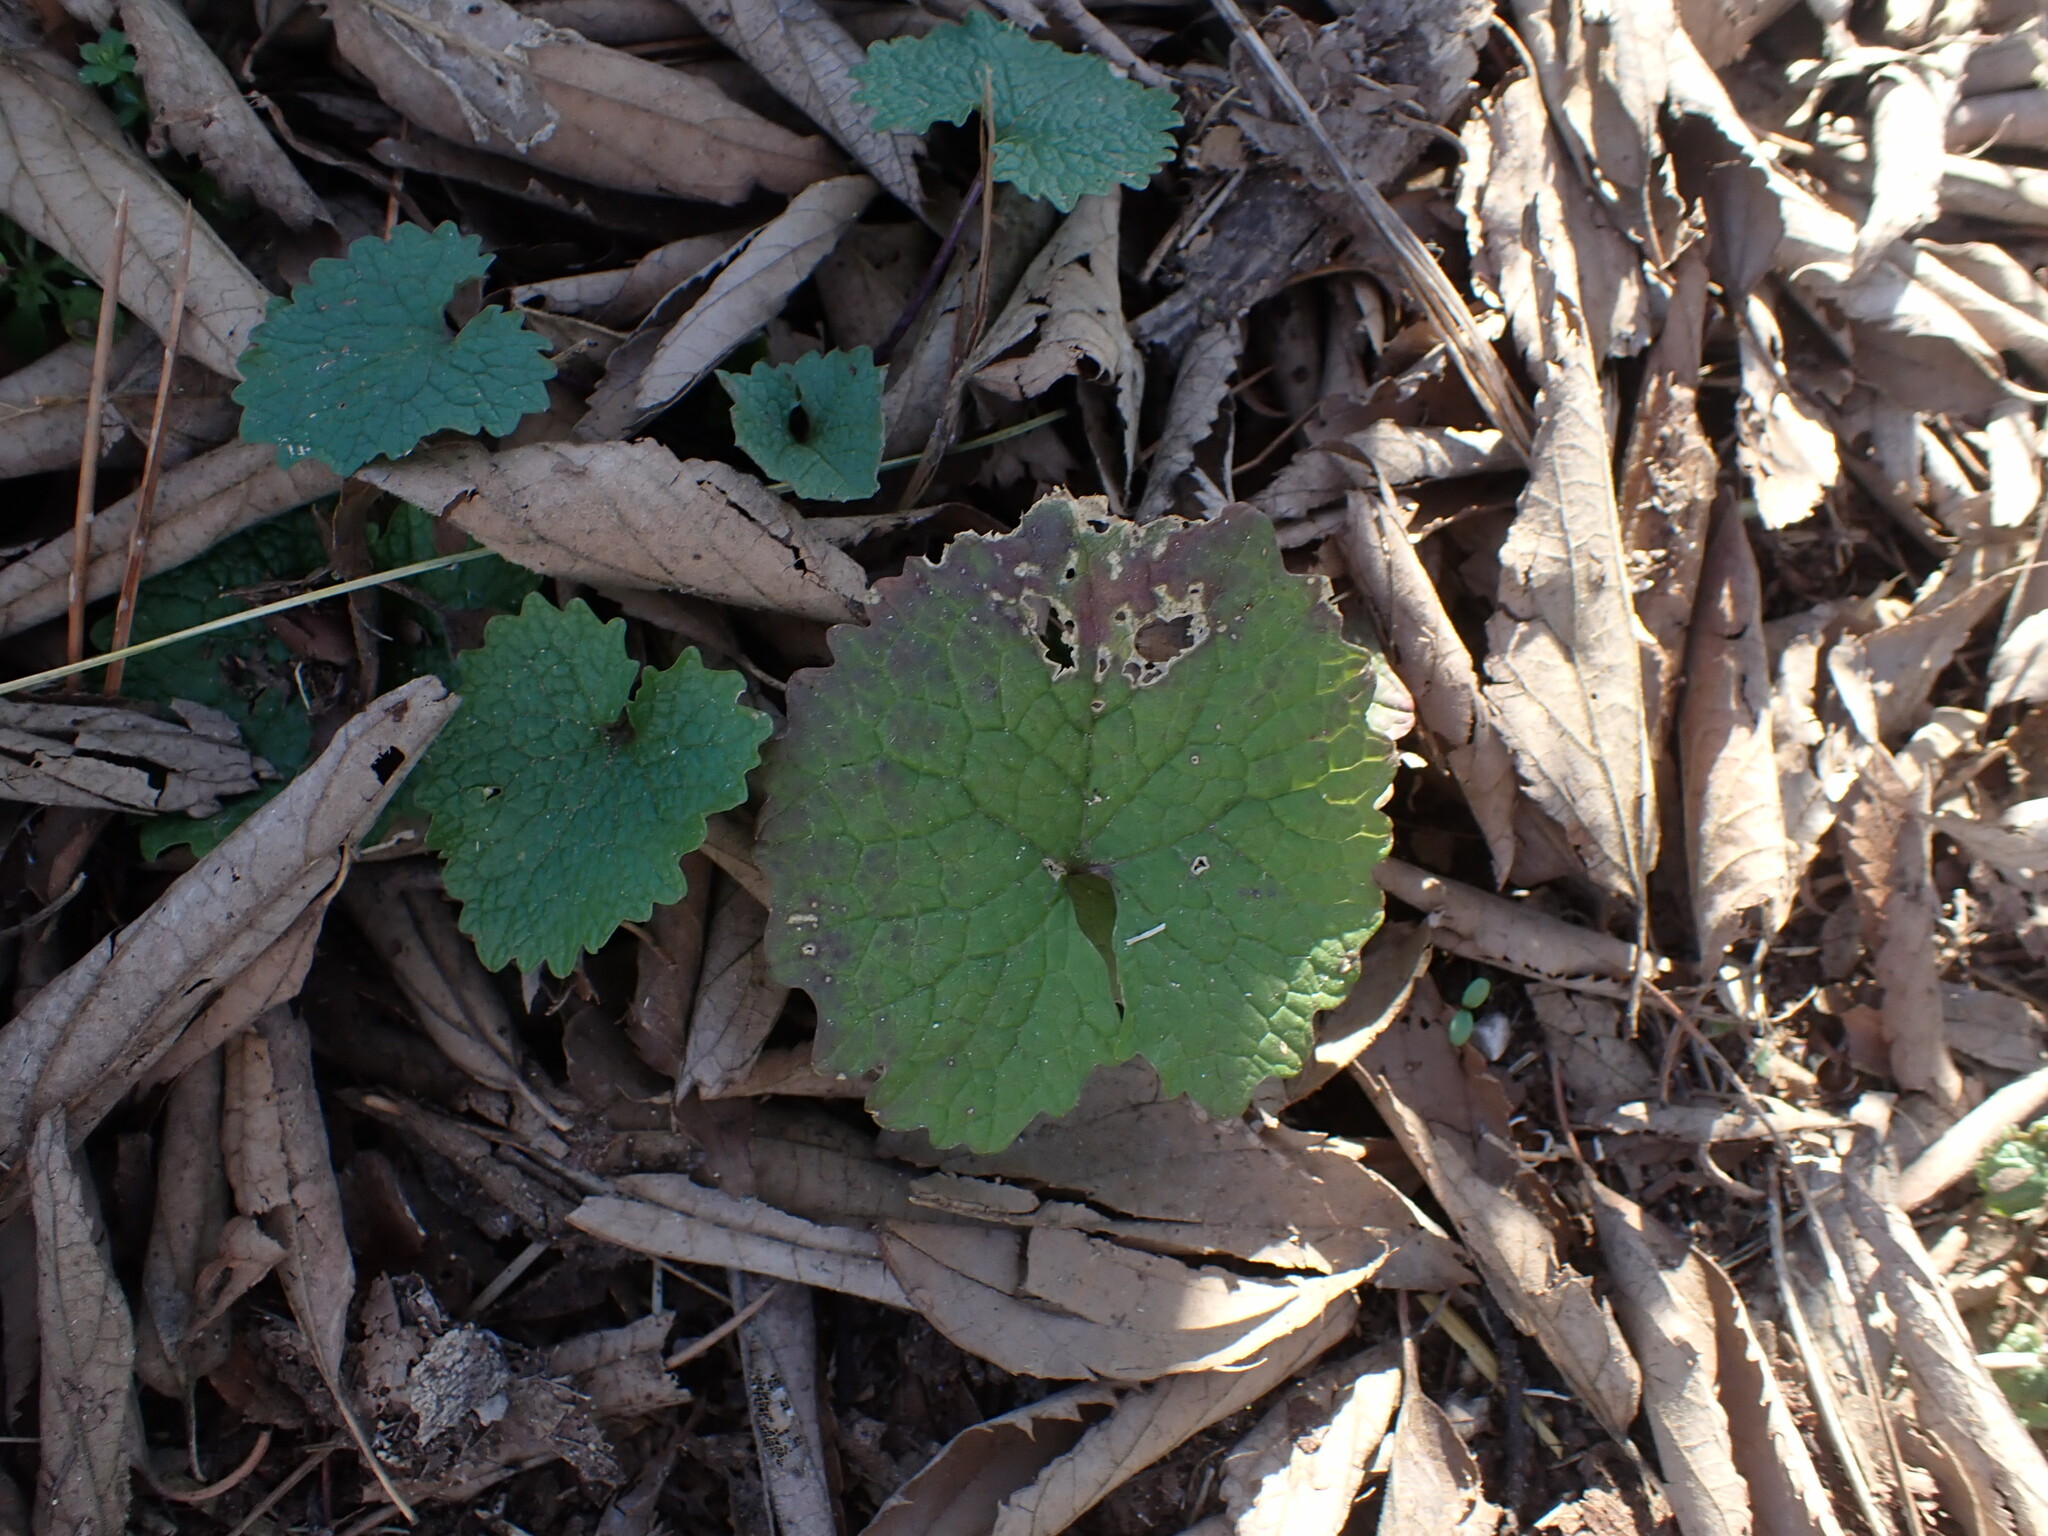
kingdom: Plantae
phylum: Tracheophyta
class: Magnoliopsida
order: Brassicales
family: Brassicaceae
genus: Alliaria
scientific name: Alliaria petiolata
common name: Garlic mustard
